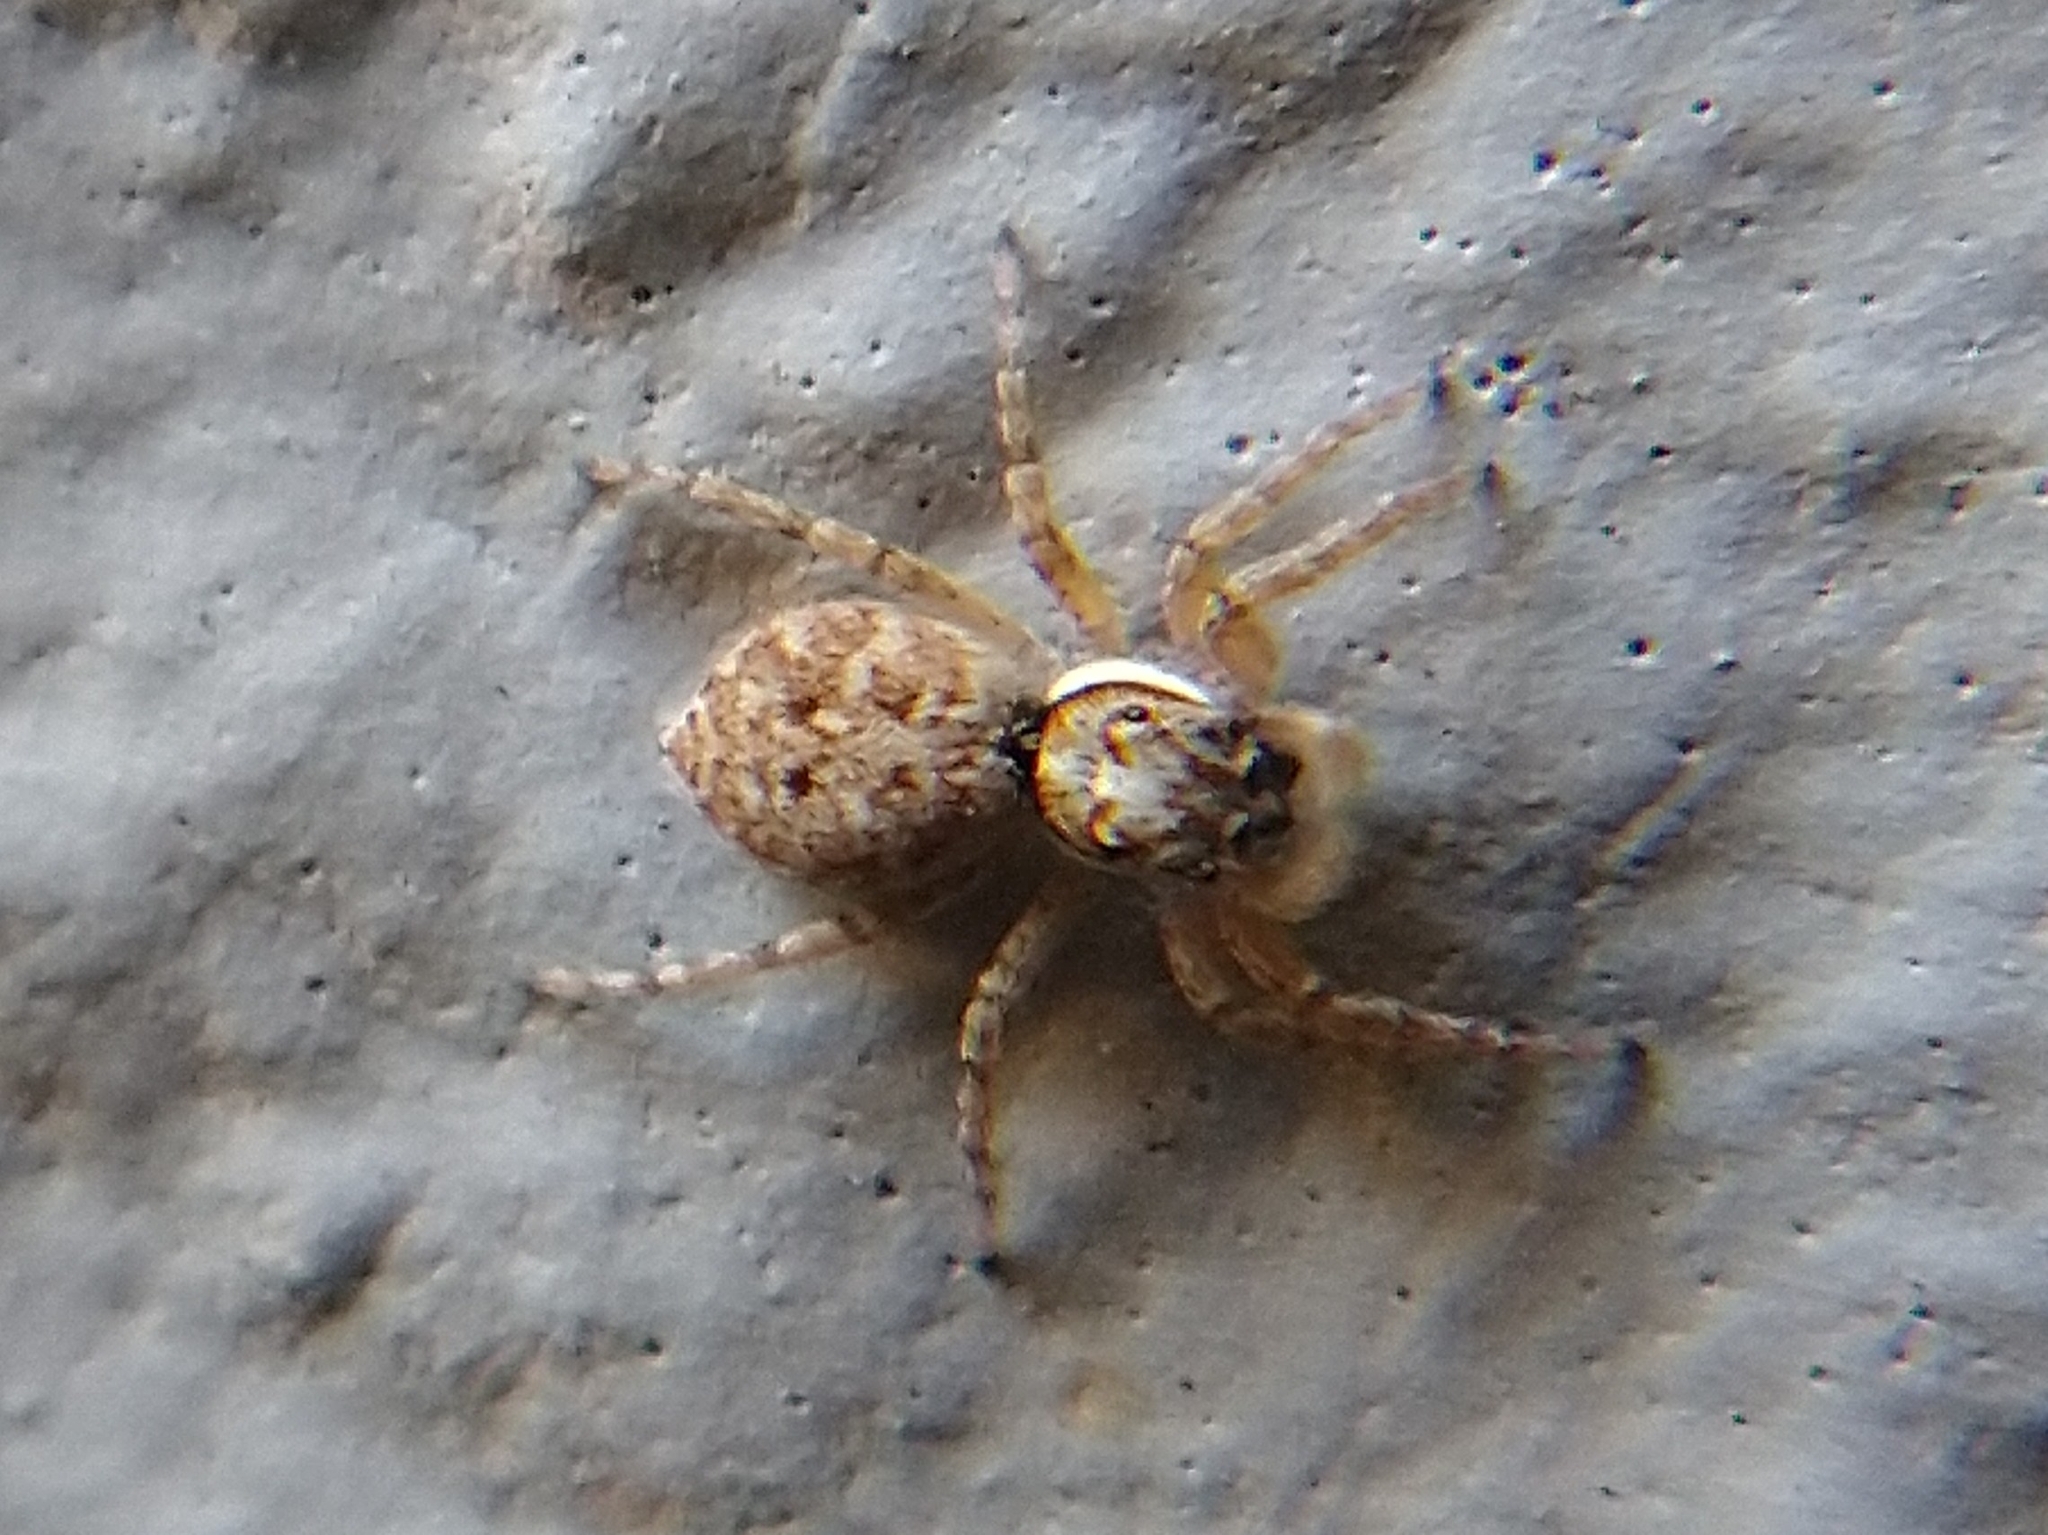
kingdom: Animalia
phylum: Arthropoda
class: Arachnida
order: Araneae
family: Salticidae
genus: Menemerus
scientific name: Menemerus semilimbatus
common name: Jumping spider
